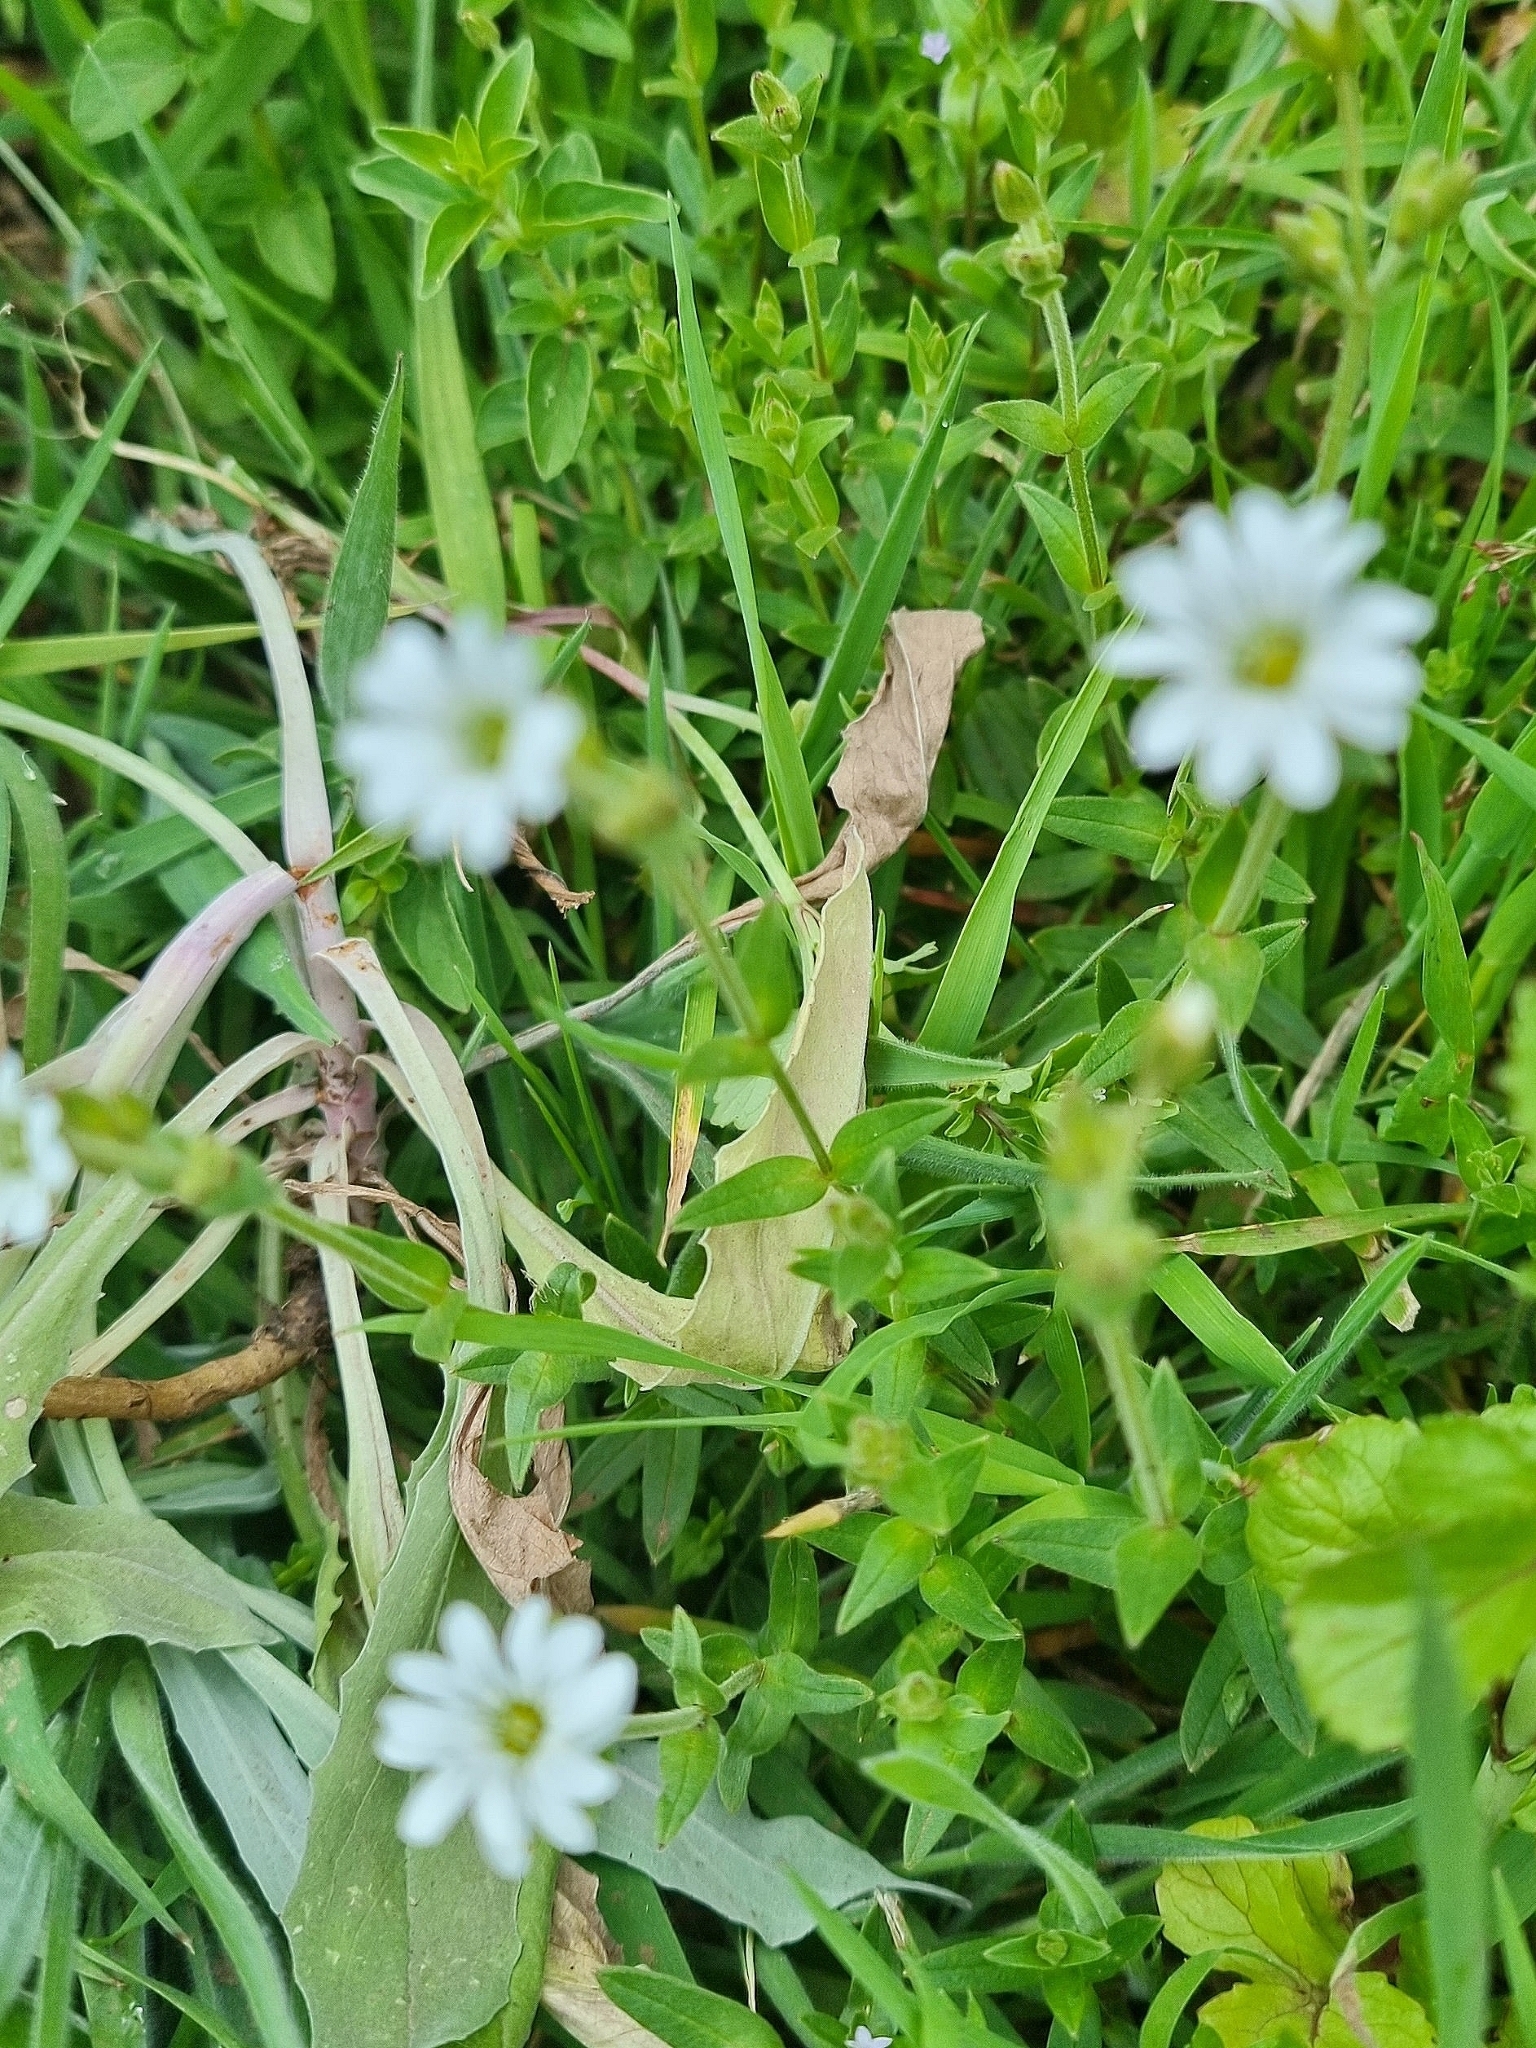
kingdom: Plantae
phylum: Tracheophyta
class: Magnoliopsida
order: Caryophyllales
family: Caryophyllaceae
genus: Cerastium
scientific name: Cerastium vagans
